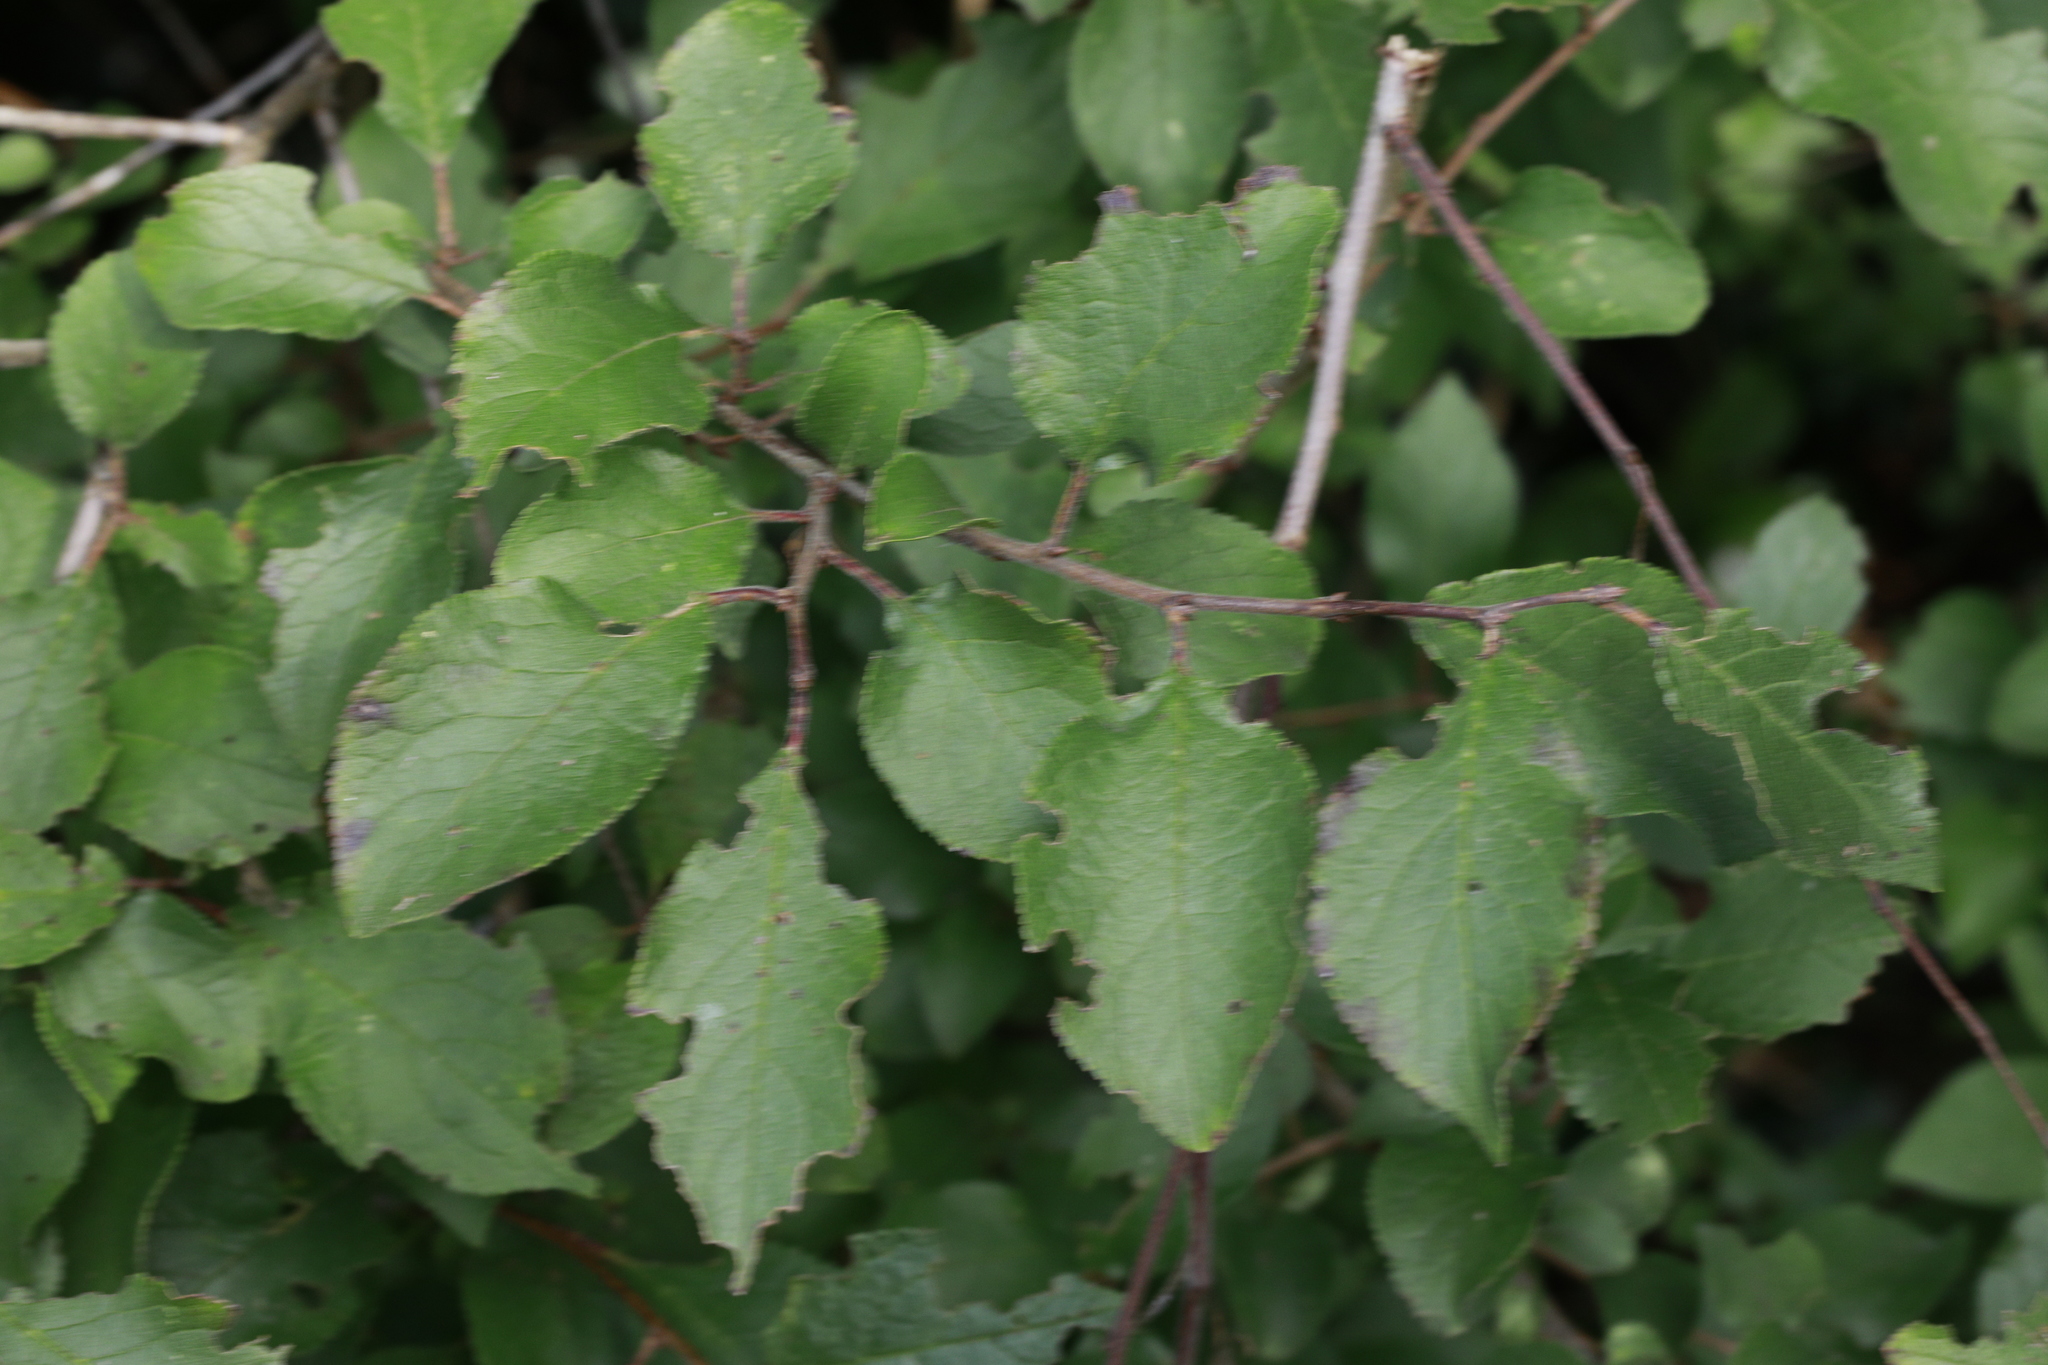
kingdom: Plantae
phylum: Tracheophyta
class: Magnoliopsida
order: Rosales
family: Rosaceae
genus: Prunus
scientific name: Prunus spinosa
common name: Blackthorn
